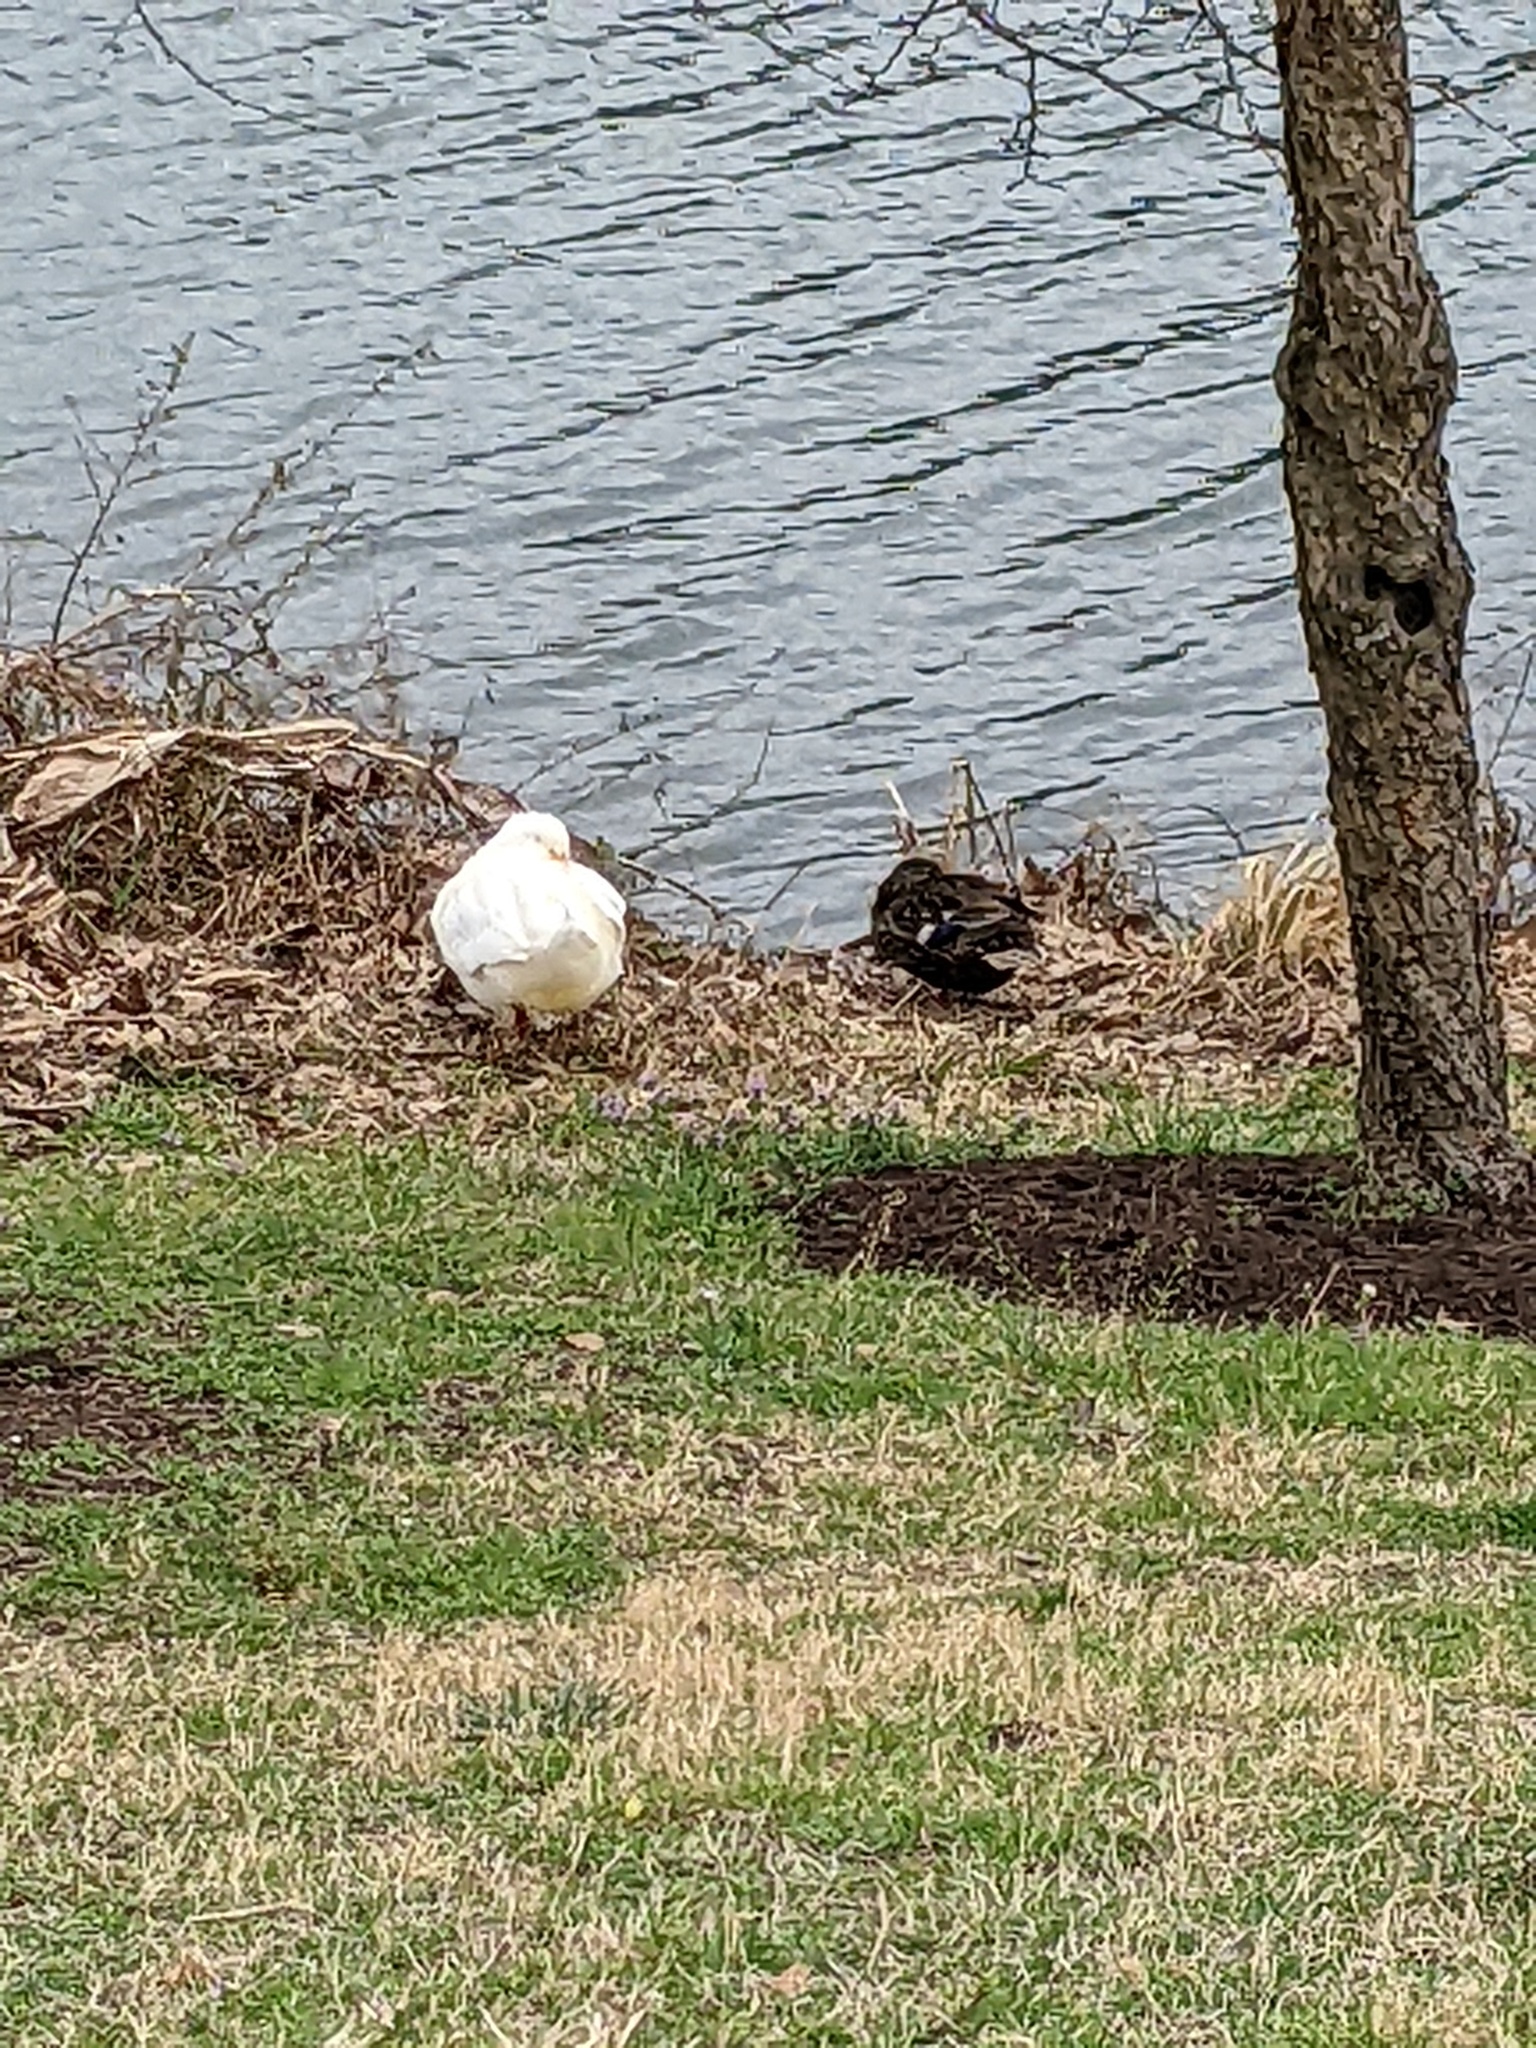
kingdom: Animalia
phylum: Chordata
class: Aves
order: Anseriformes
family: Anatidae
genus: Anas
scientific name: Anas platyrhynchos
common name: Mallard
